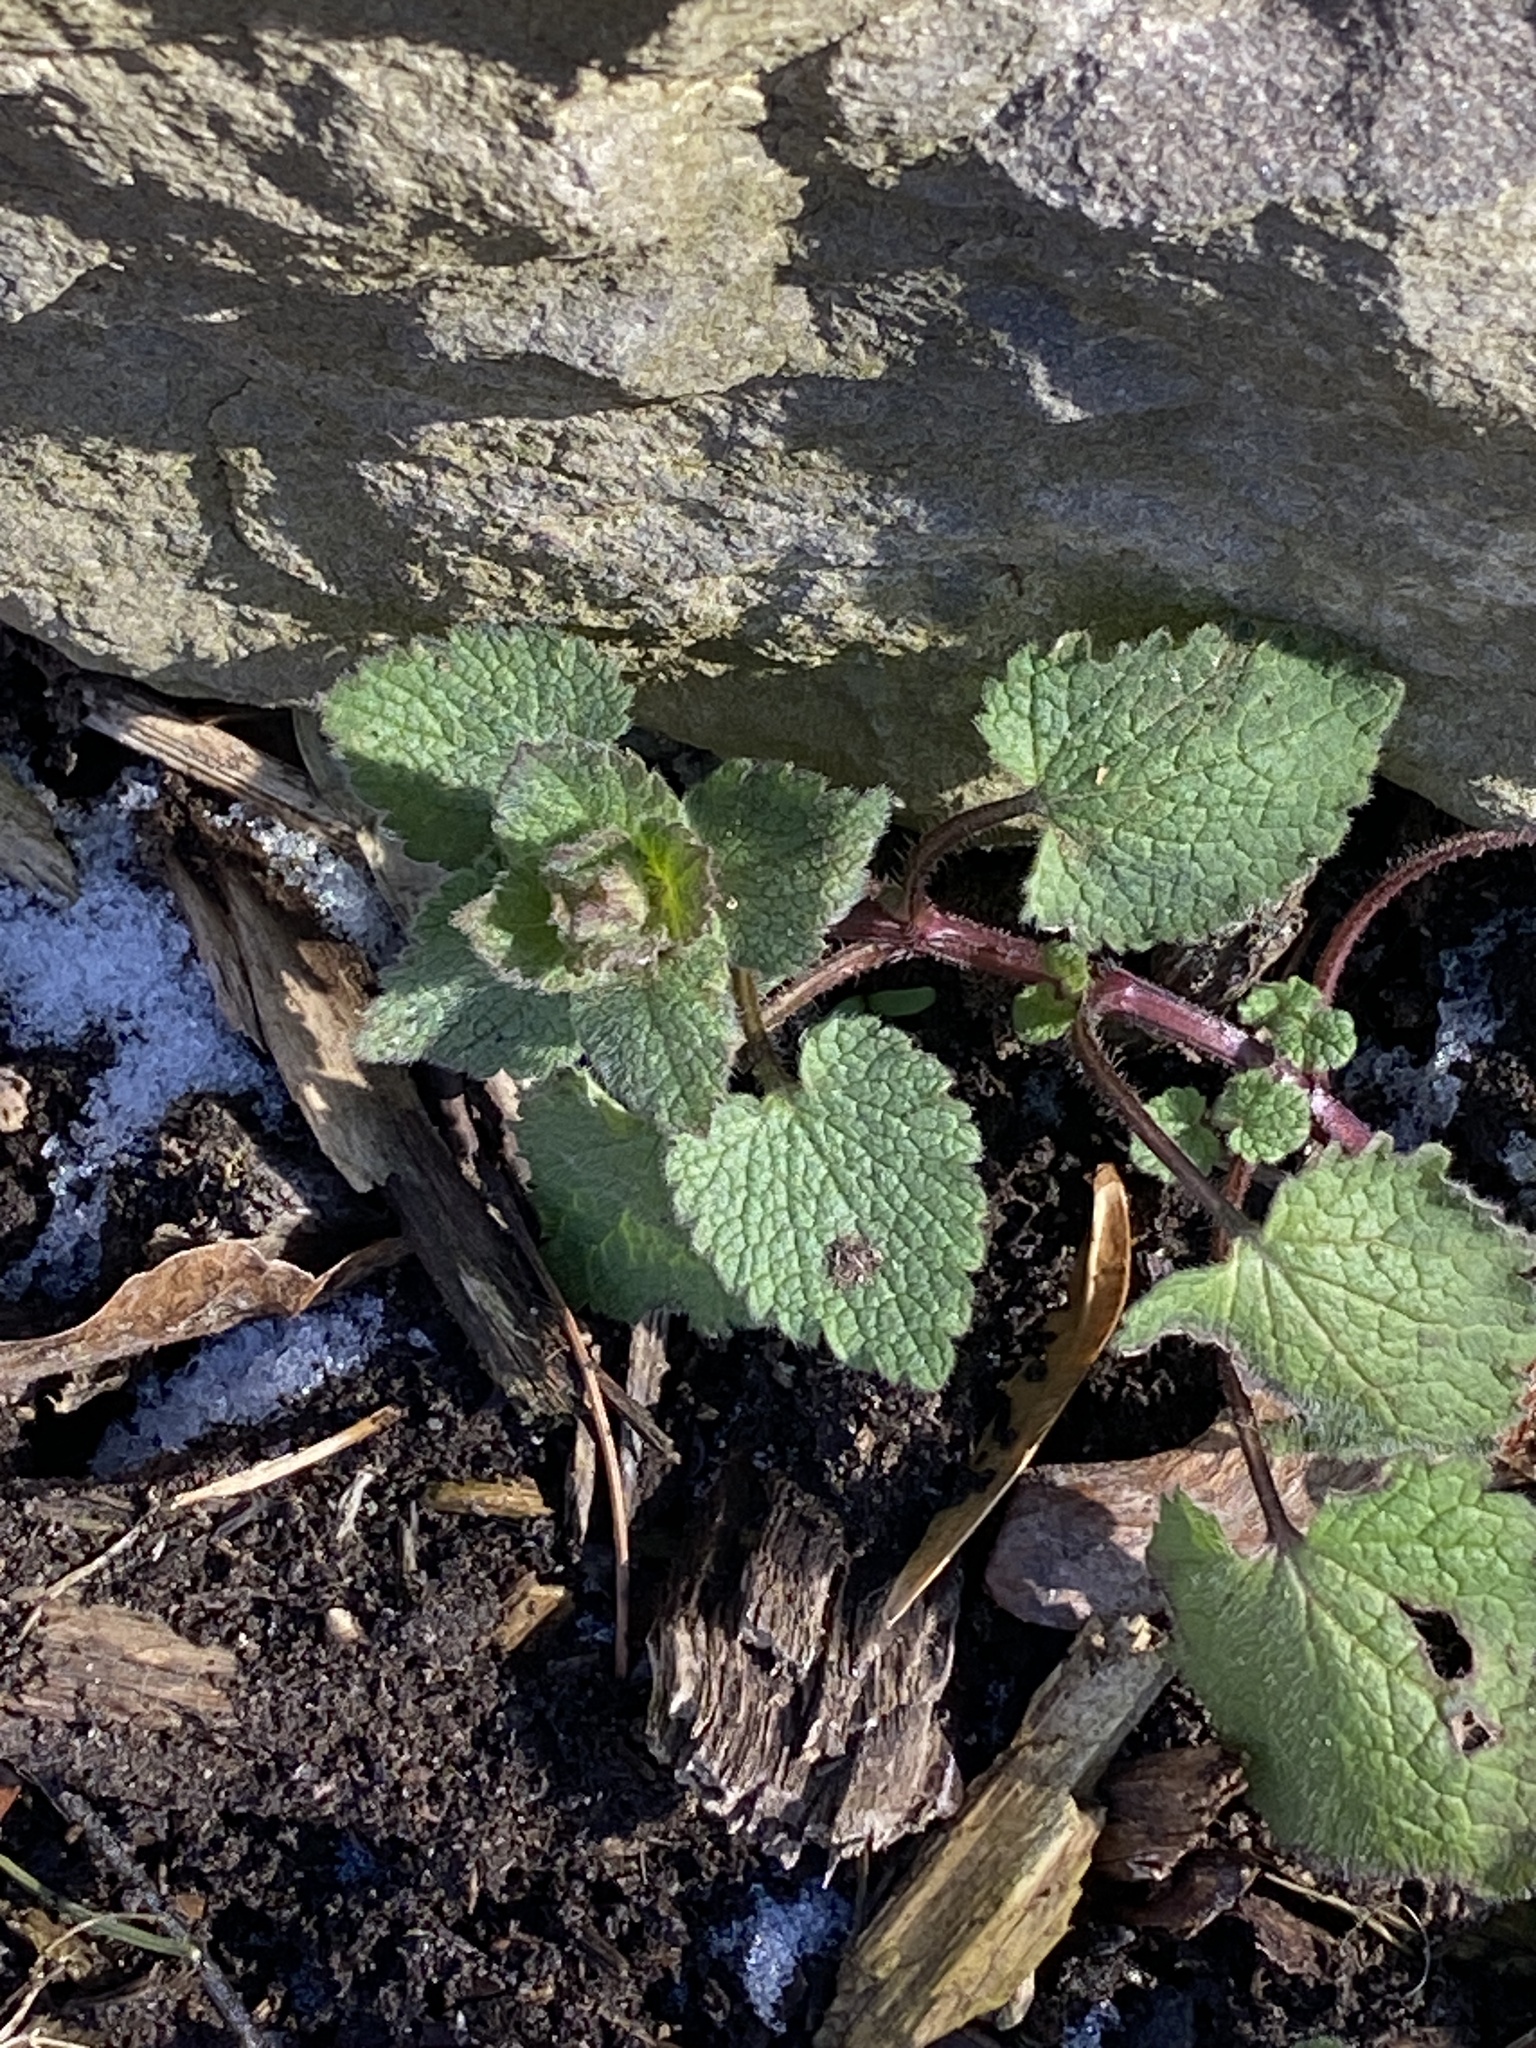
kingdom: Plantae
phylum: Tracheophyta
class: Magnoliopsida
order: Lamiales
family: Lamiaceae
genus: Lamium
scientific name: Lamium purpureum
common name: Red dead-nettle
